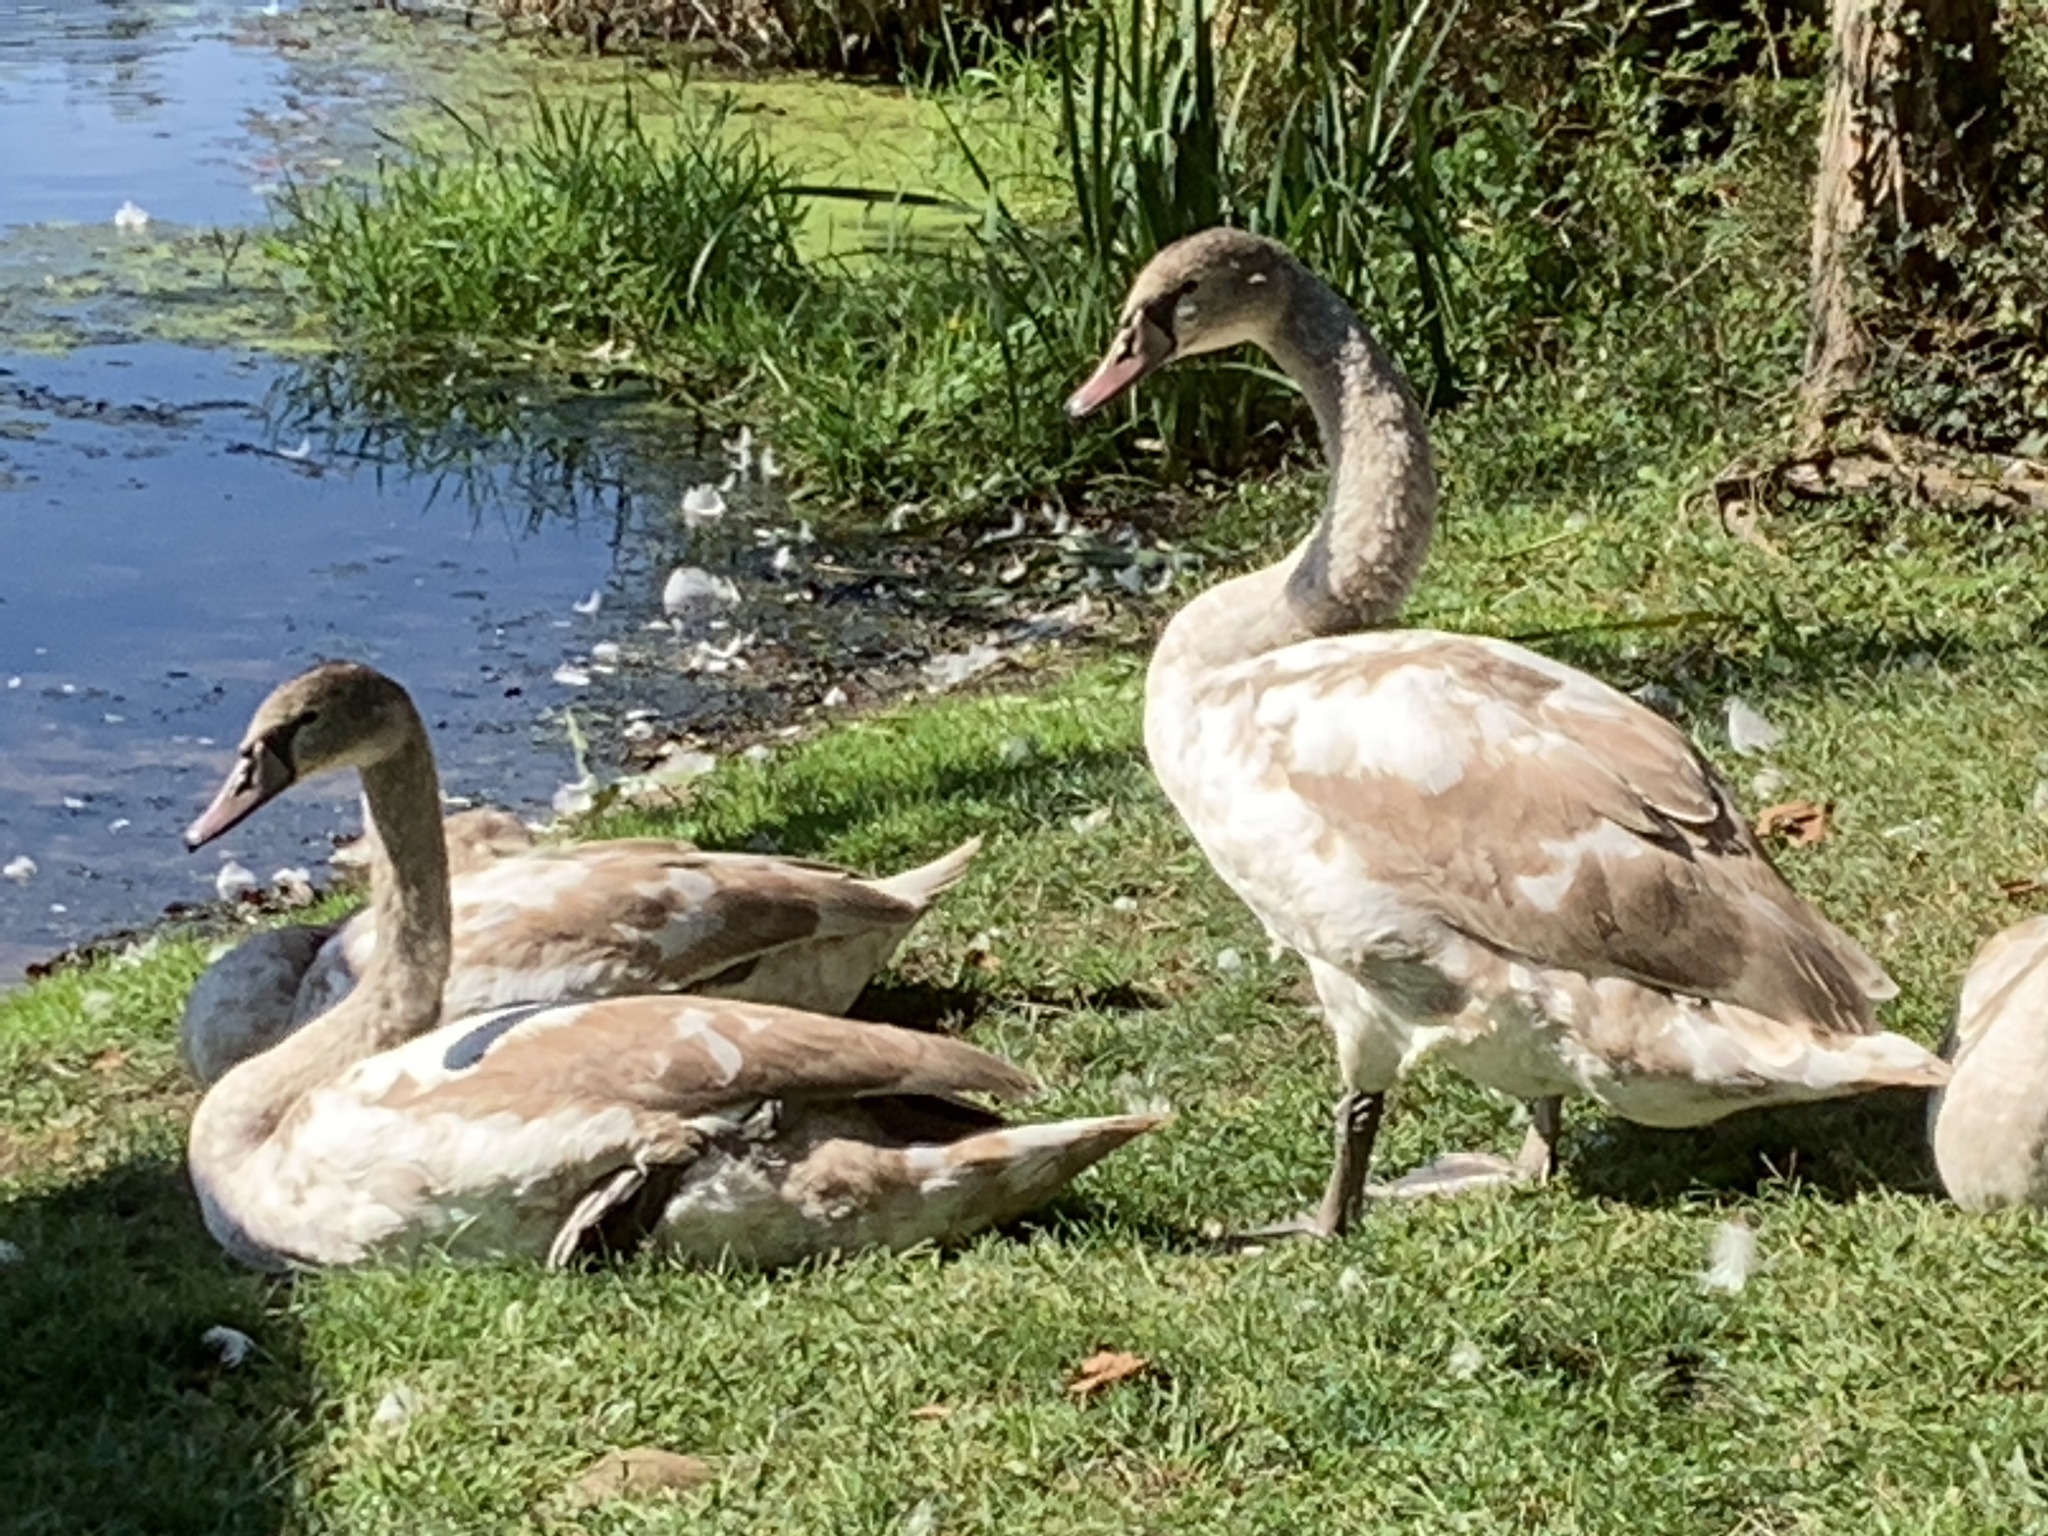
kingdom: Animalia
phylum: Chordata
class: Aves
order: Anseriformes
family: Anatidae
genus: Cygnus
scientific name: Cygnus olor
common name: Mute swan
